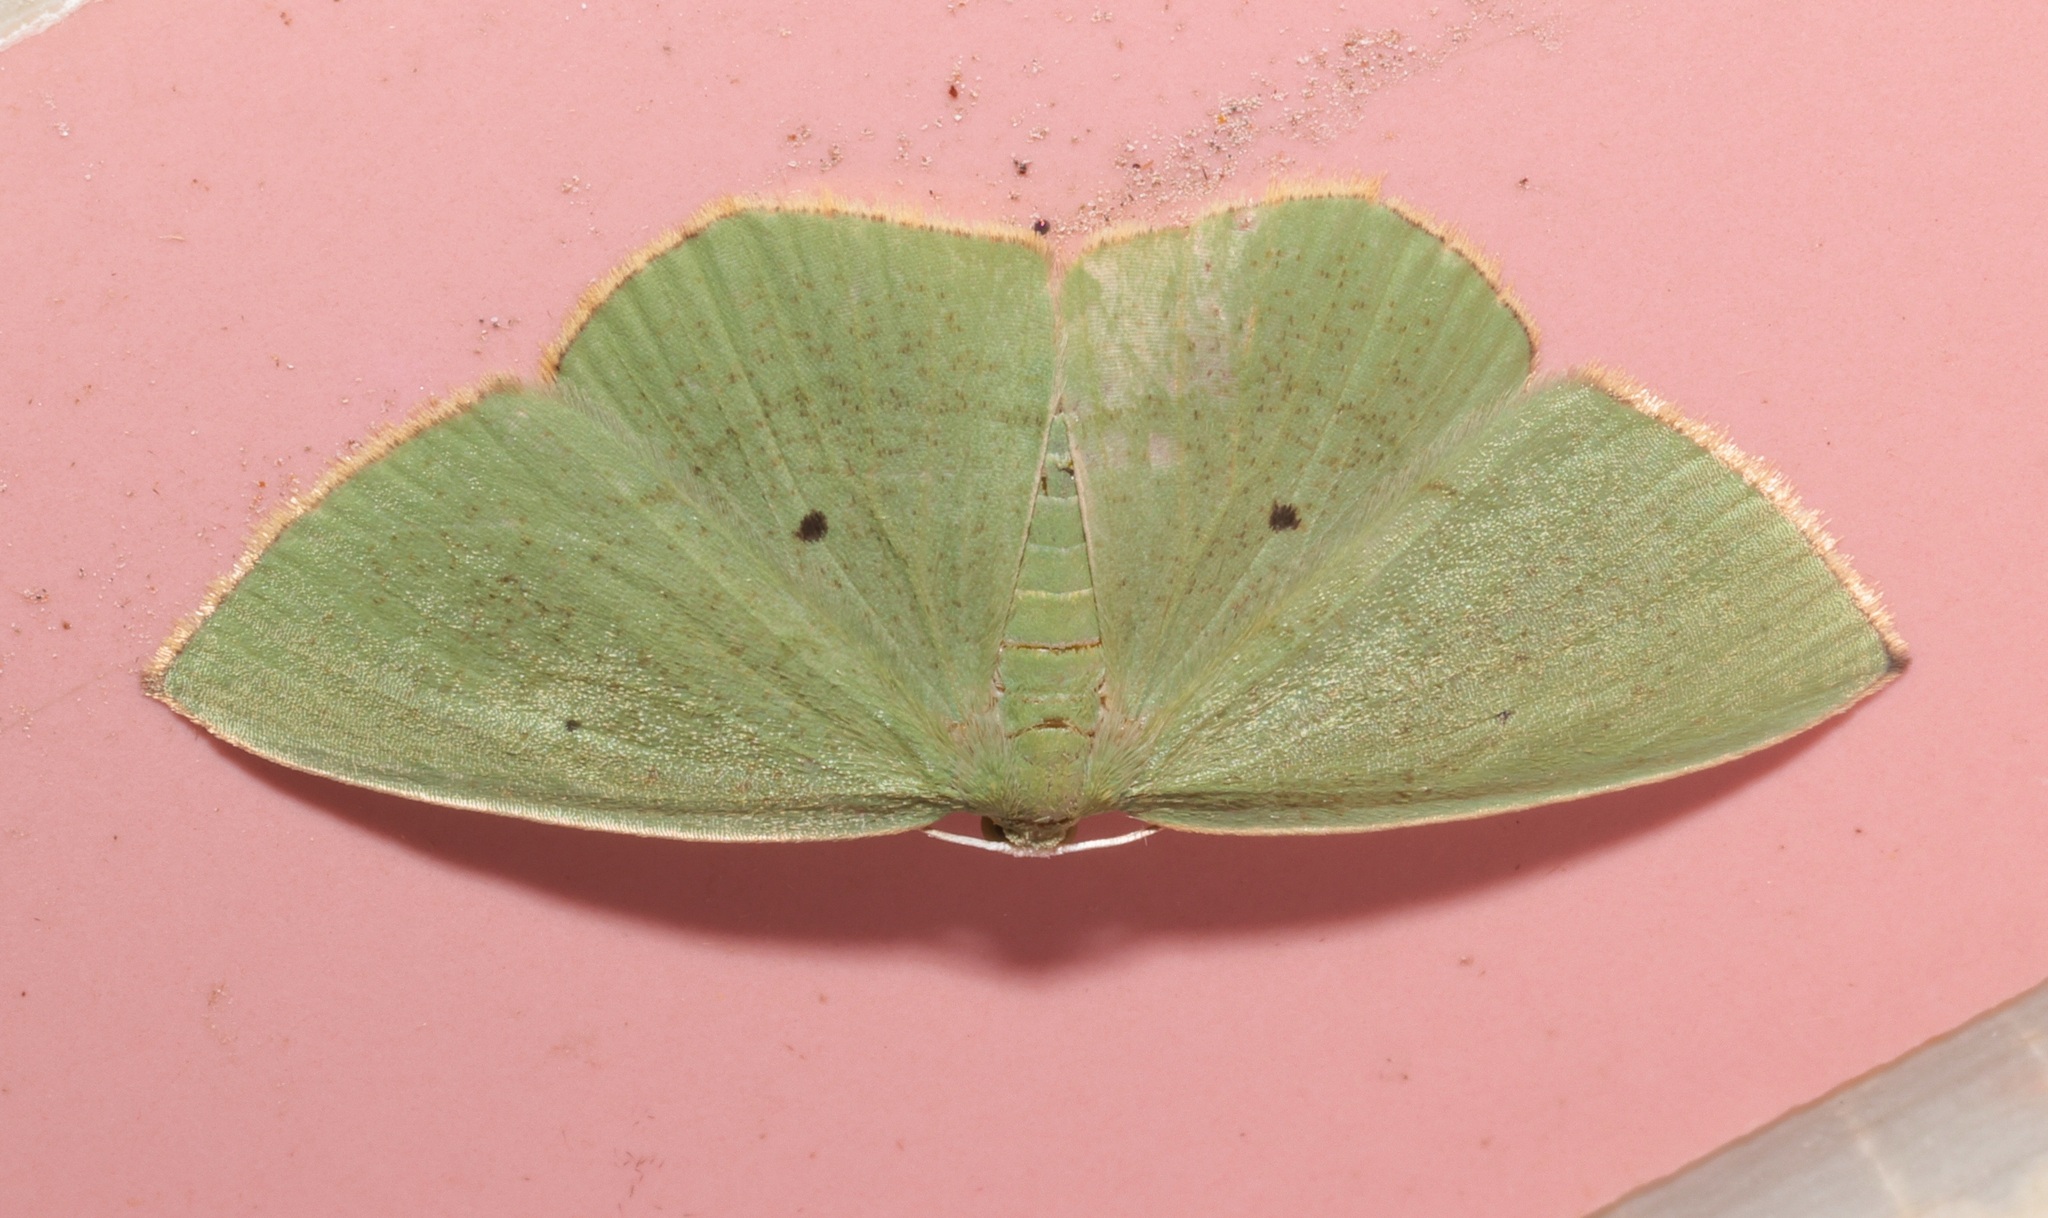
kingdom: Animalia
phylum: Arthropoda
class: Insecta
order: Lepidoptera
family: Geometridae
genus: Pseudothalera
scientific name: Pseudothalera carolinae
